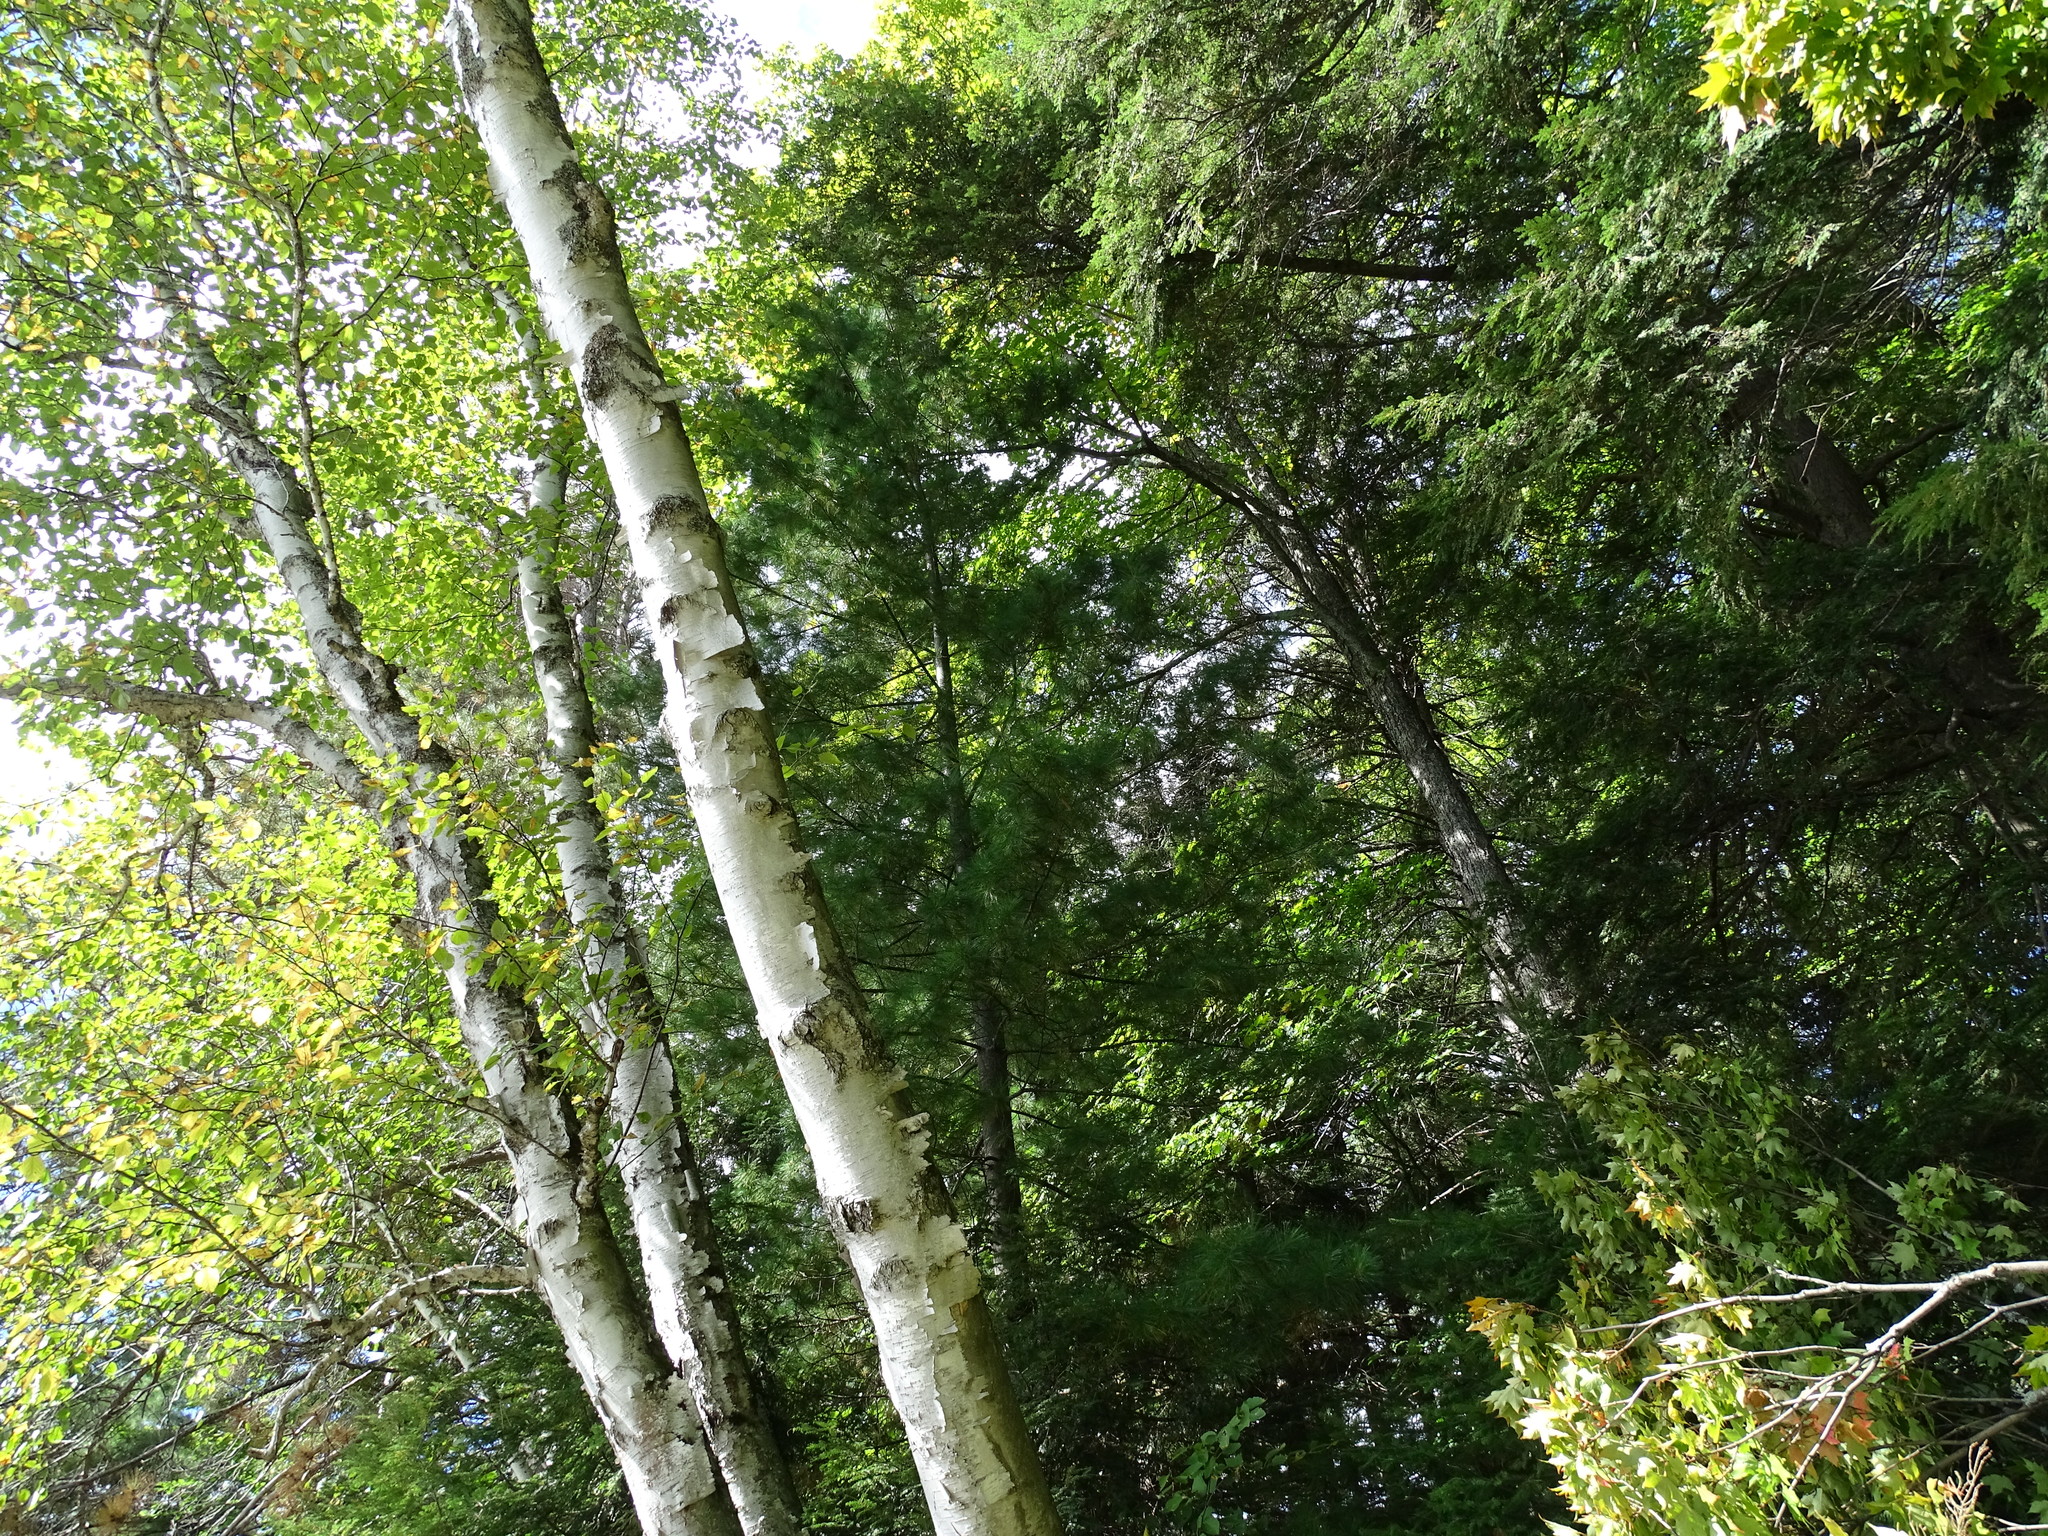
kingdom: Plantae
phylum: Tracheophyta
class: Magnoliopsida
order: Fagales
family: Betulaceae
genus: Betula
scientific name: Betula papyrifera
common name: Paper birch
